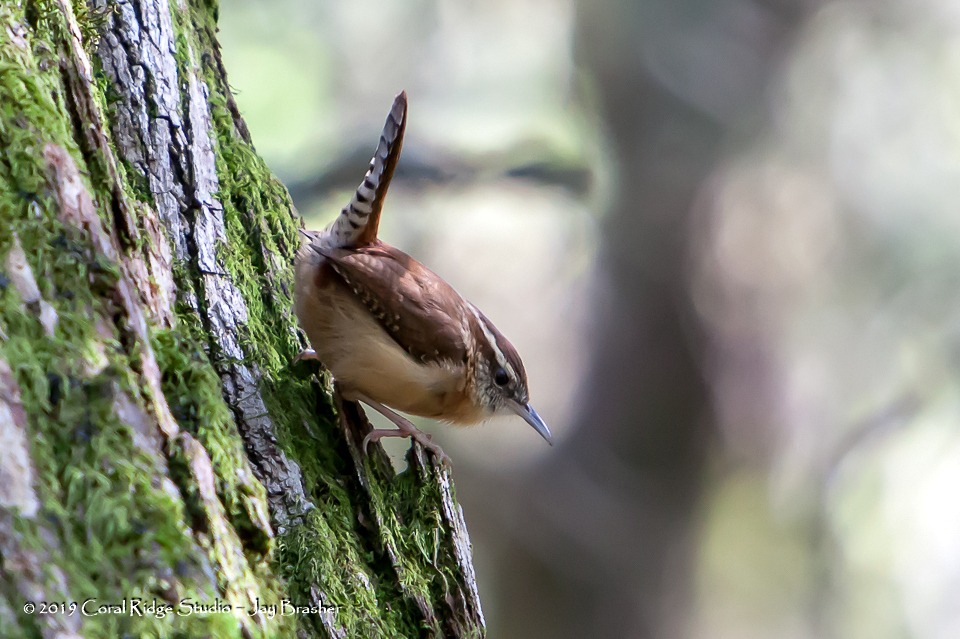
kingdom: Animalia
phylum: Chordata
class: Aves
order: Passeriformes
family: Troglodytidae
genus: Thryothorus
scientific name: Thryothorus ludovicianus
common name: Carolina wren
